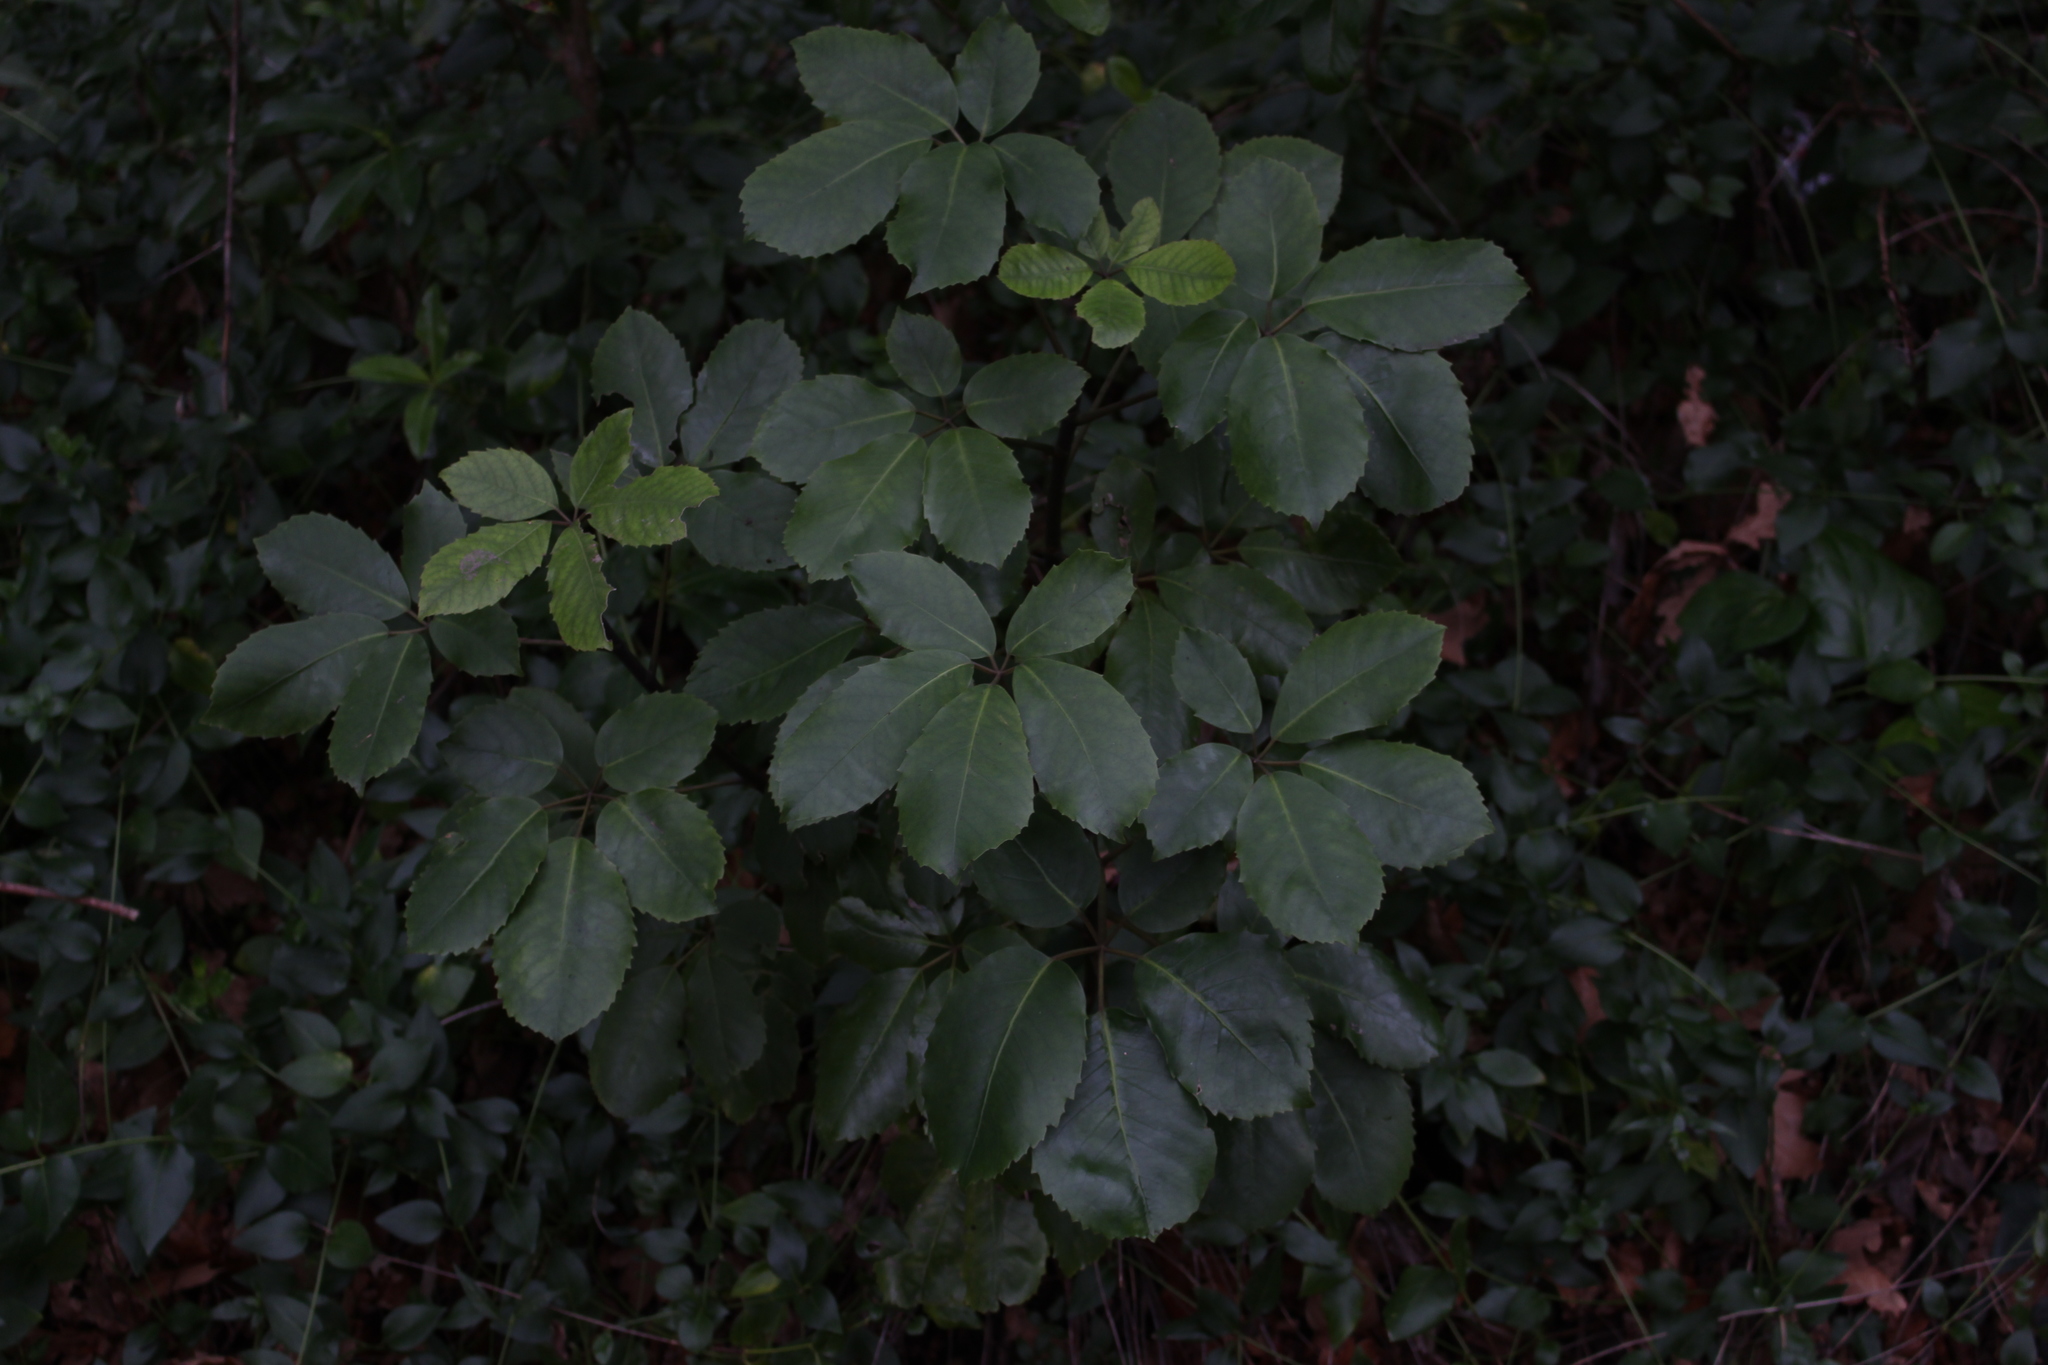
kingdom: Plantae
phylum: Tracheophyta
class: Magnoliopsida
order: Apiales
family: Araliaceae
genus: Neopanax
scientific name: Neopanax arboreus
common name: Five-fingers
